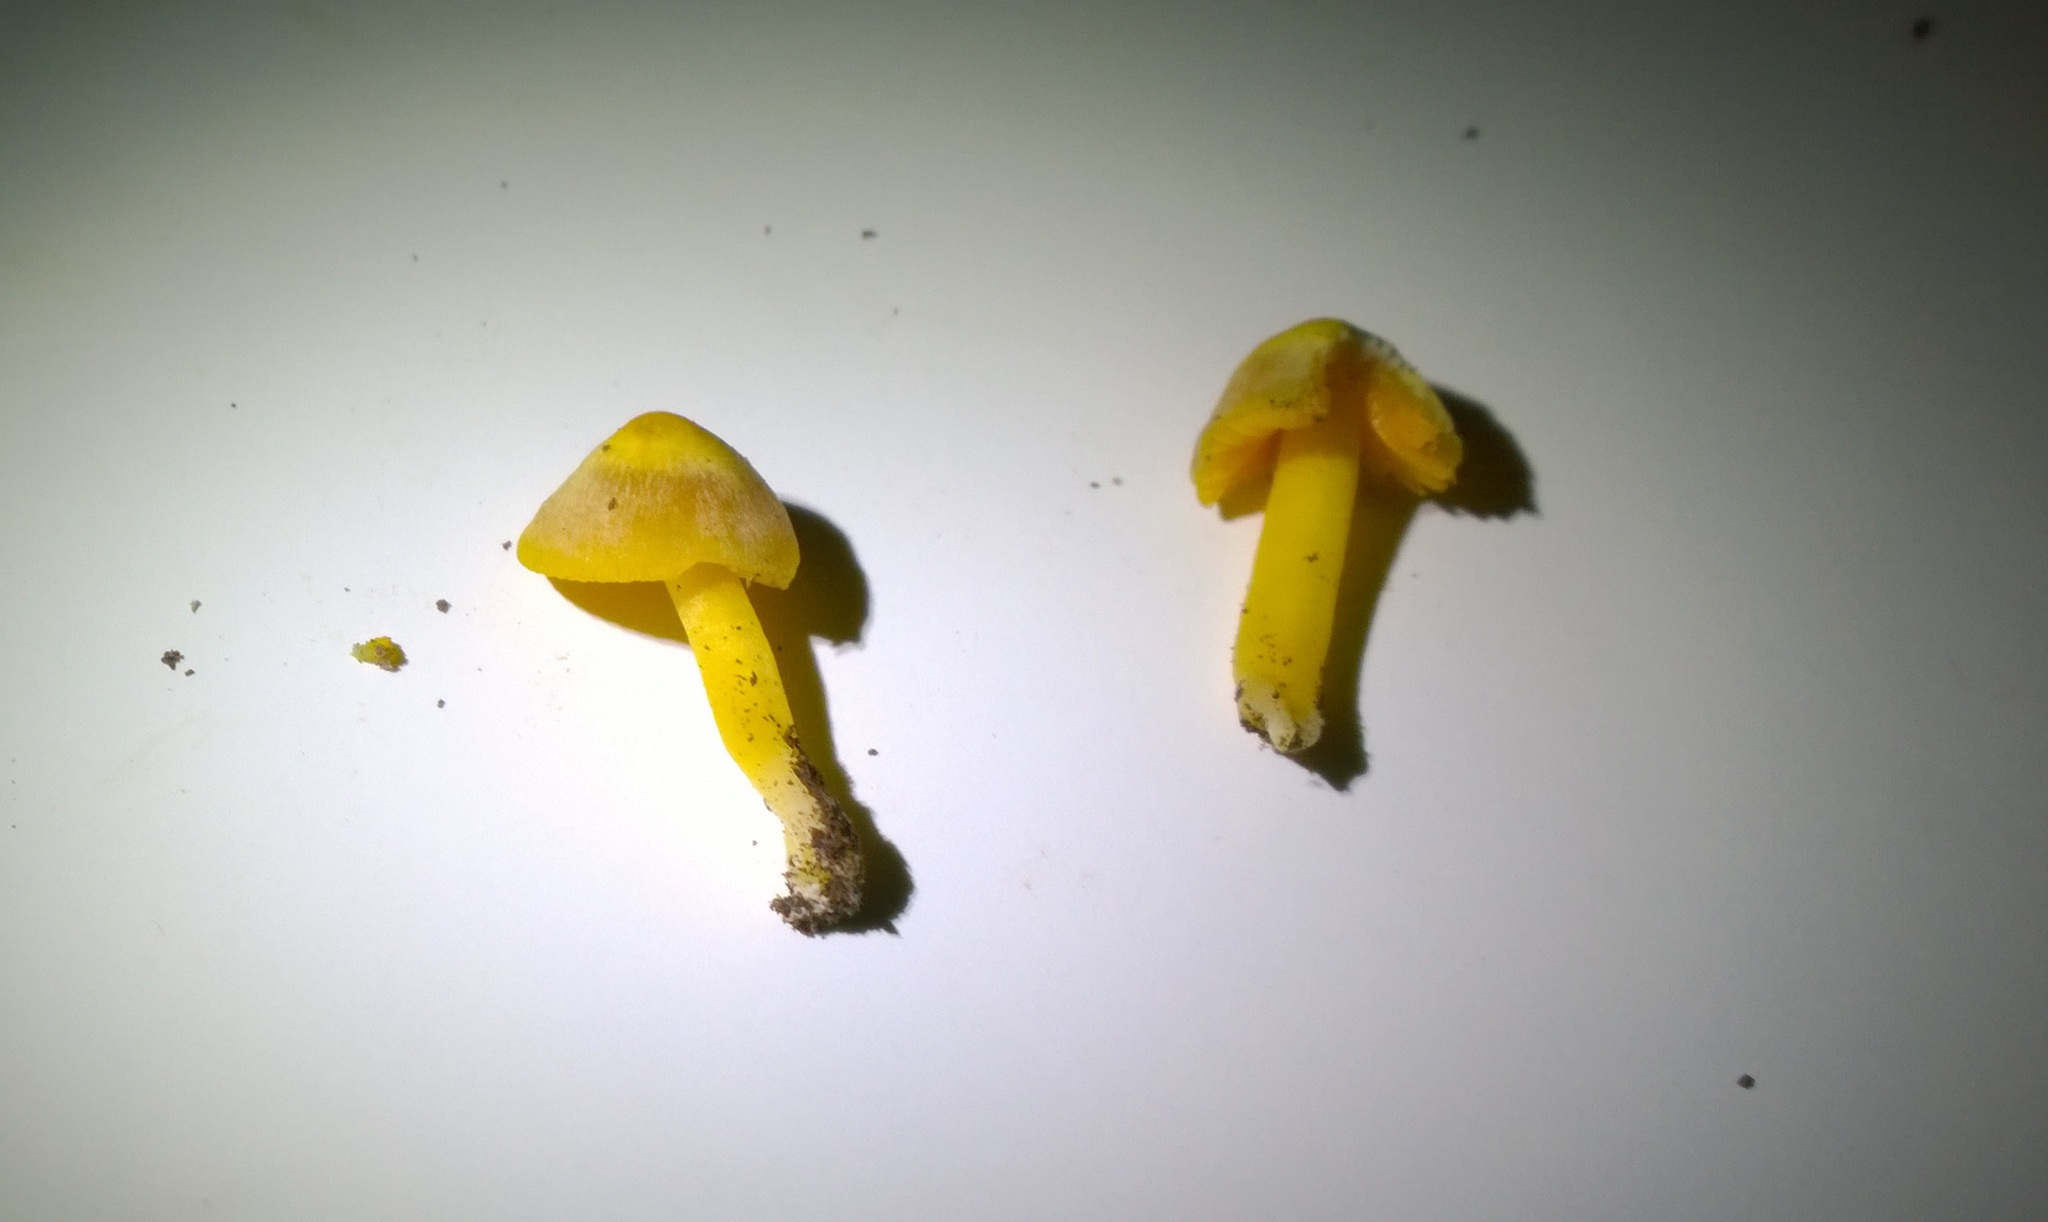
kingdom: Fungi
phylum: Basidiomycota
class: Agaricomycetes
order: Agaricales
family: Hygrophoraceae
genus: Humidicutis
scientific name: Humidicutis marginata
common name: Orange gilled waxcap
